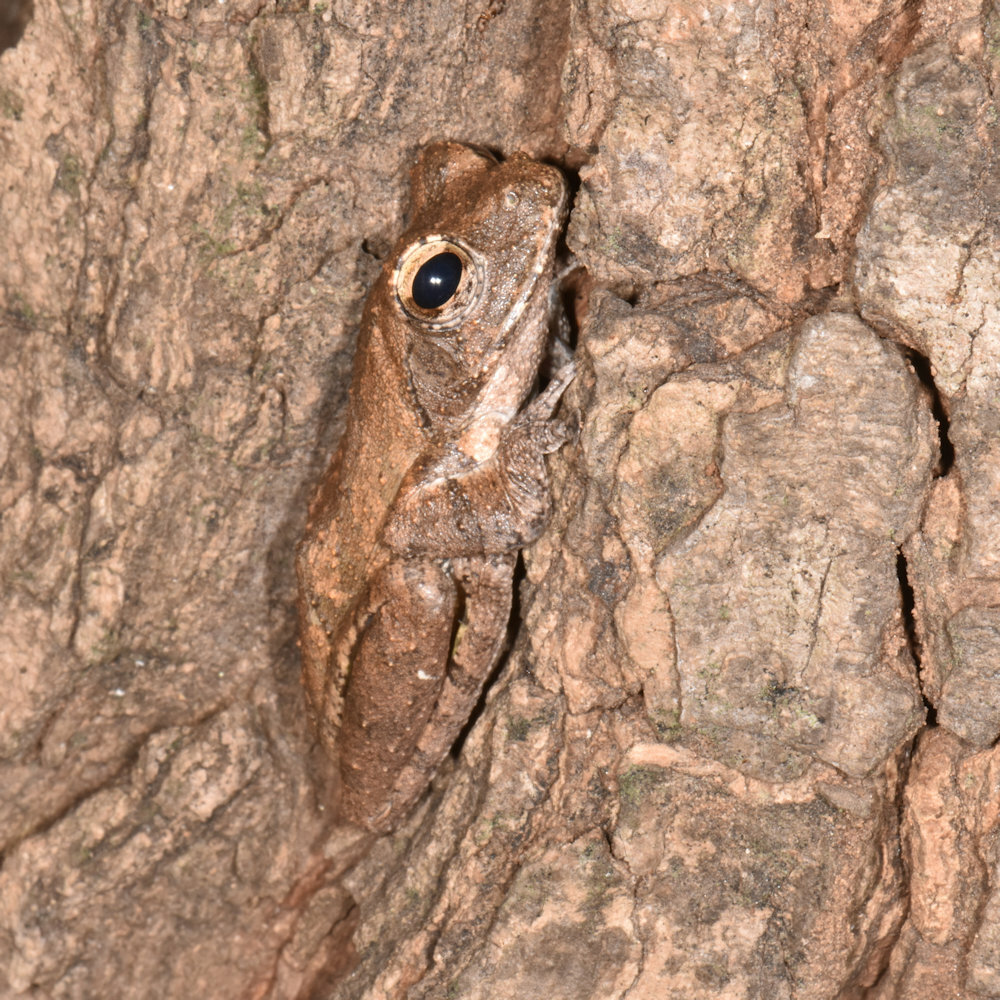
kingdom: Animalia
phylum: Chordata
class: Amphibia
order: Anura
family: Rhacophoridae
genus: Chiromantis
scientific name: Chiromantis xerampelina
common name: African gray treefrog
